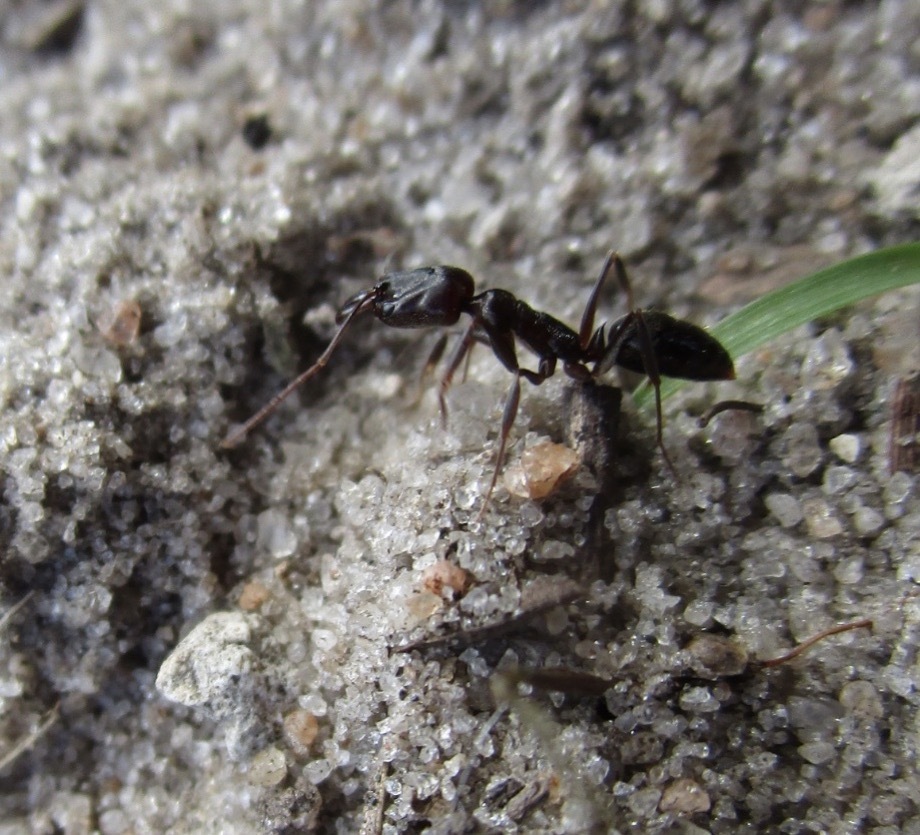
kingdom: Animalia
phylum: Arthropoda
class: Insecta
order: Hymenoptera
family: Formicidae
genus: Odontomachus
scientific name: Odontomachus brunneus
